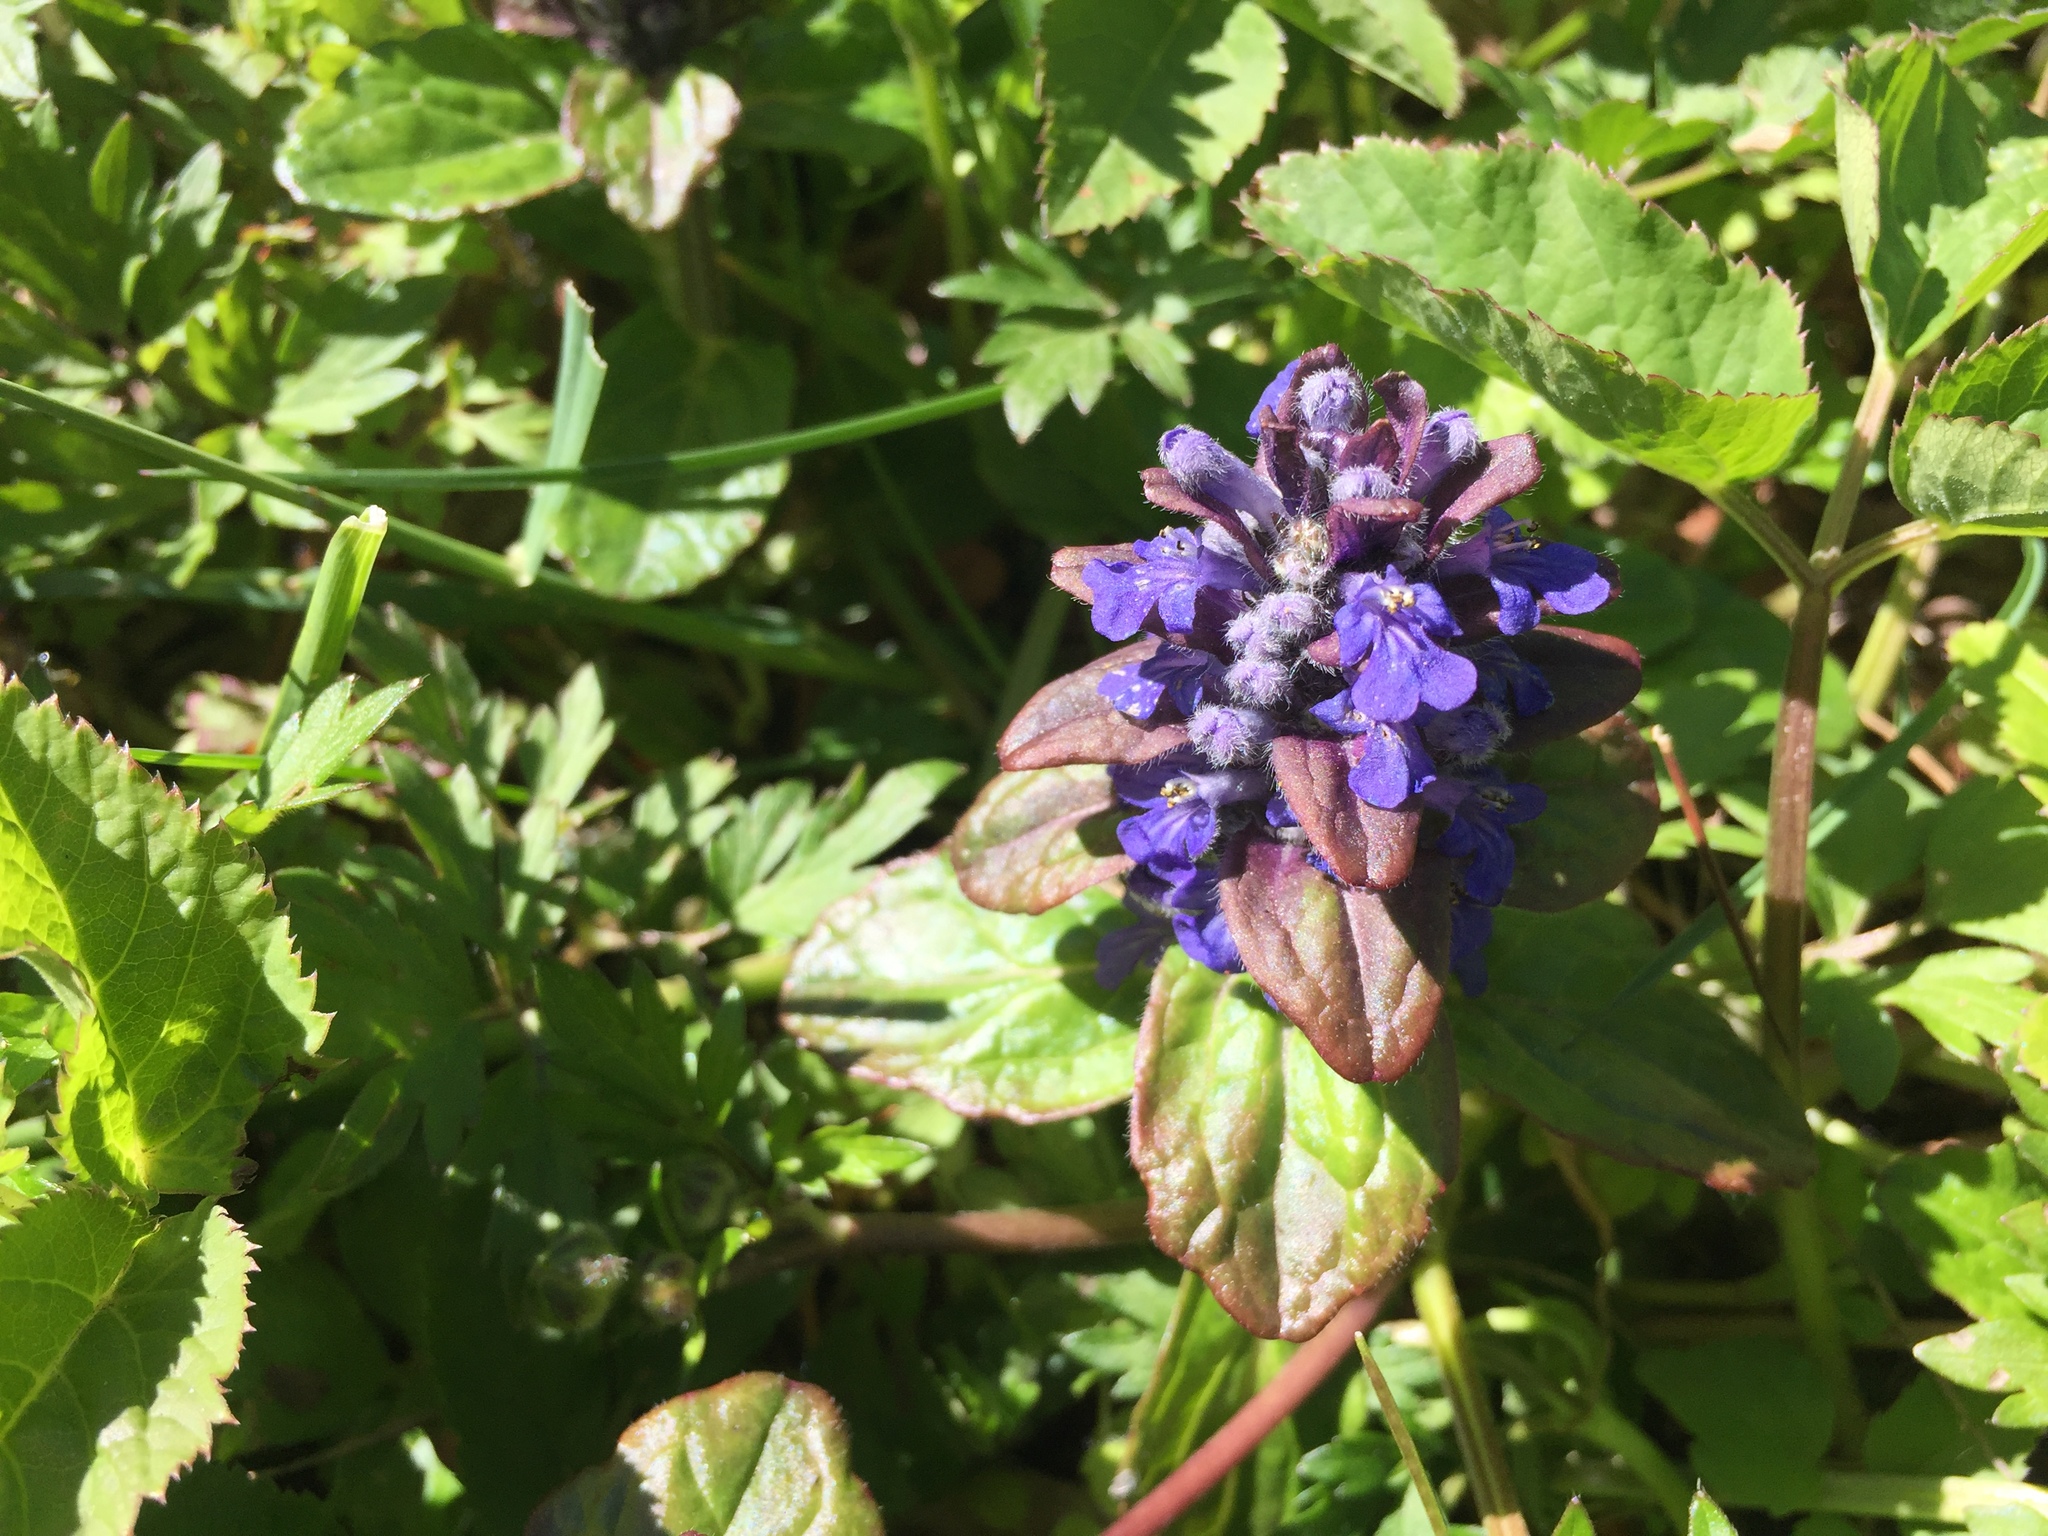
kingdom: Plantae
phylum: Tracheophyta
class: Magnoliopsida
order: Lamiales
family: Lamiaceae
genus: Ajuga
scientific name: Ajuga reptans
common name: Bugle
